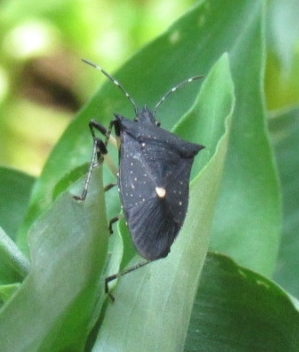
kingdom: Animalia
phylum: Arthropoda
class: Insecta
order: Hemiptera
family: Pentatomidae
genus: Proxys
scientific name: Proxys punctulatus
